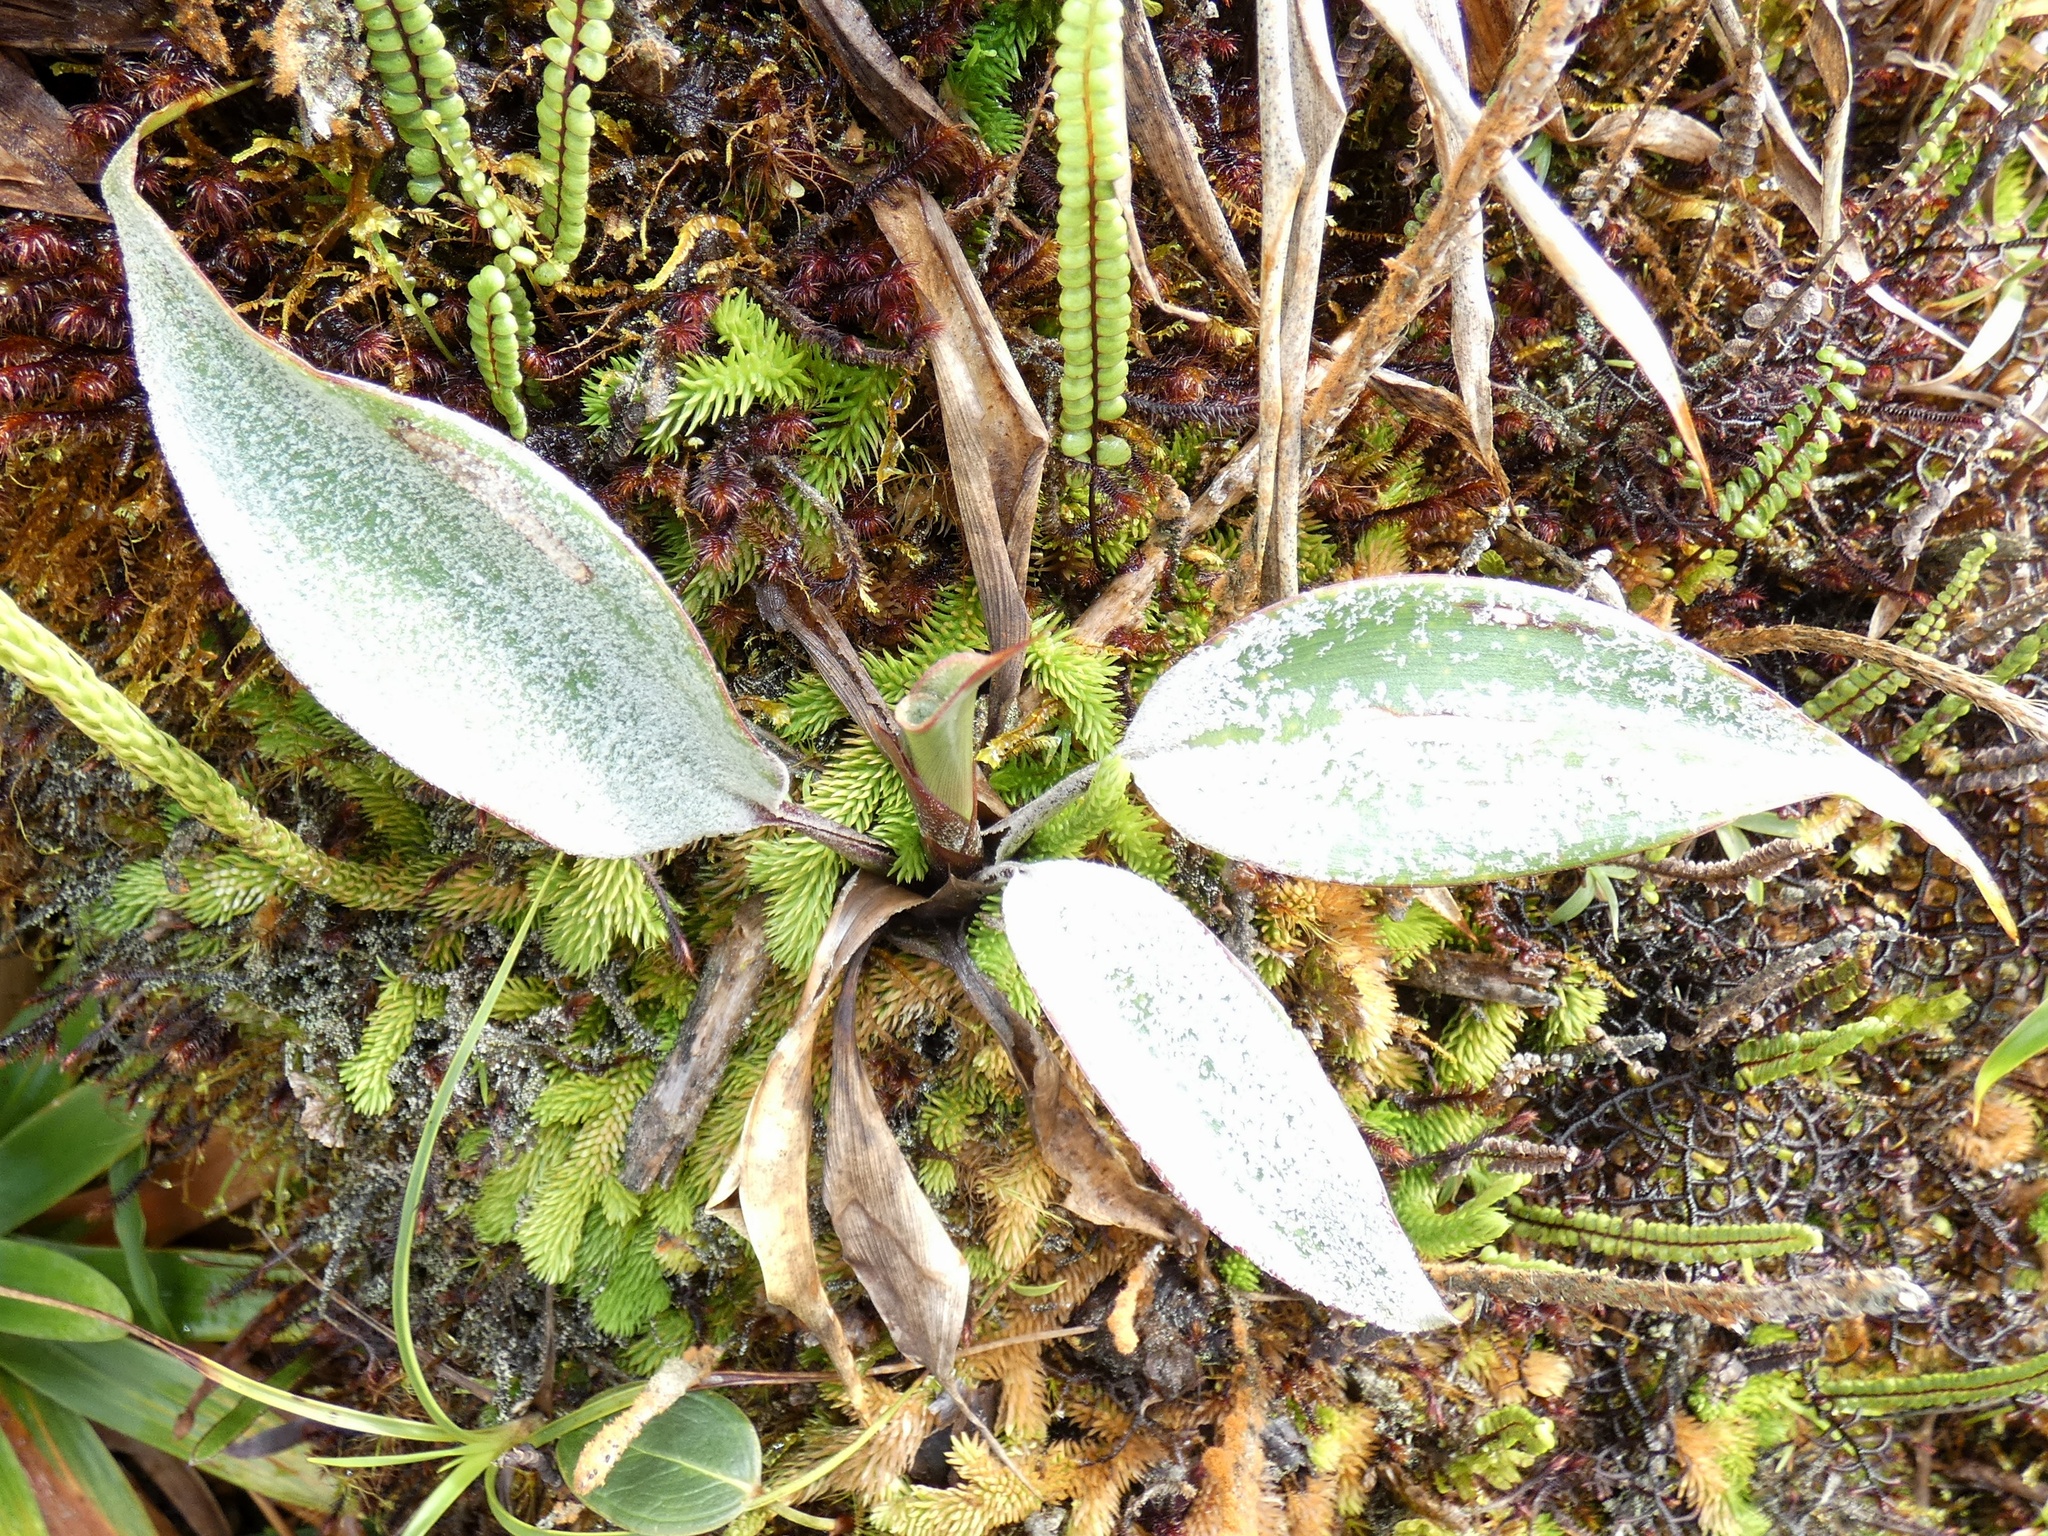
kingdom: Plantae
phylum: Tracheophyta
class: Liliopsida
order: Poales
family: Bromeliaceae
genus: Pitcairnia
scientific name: Pitcairnia albifolia
